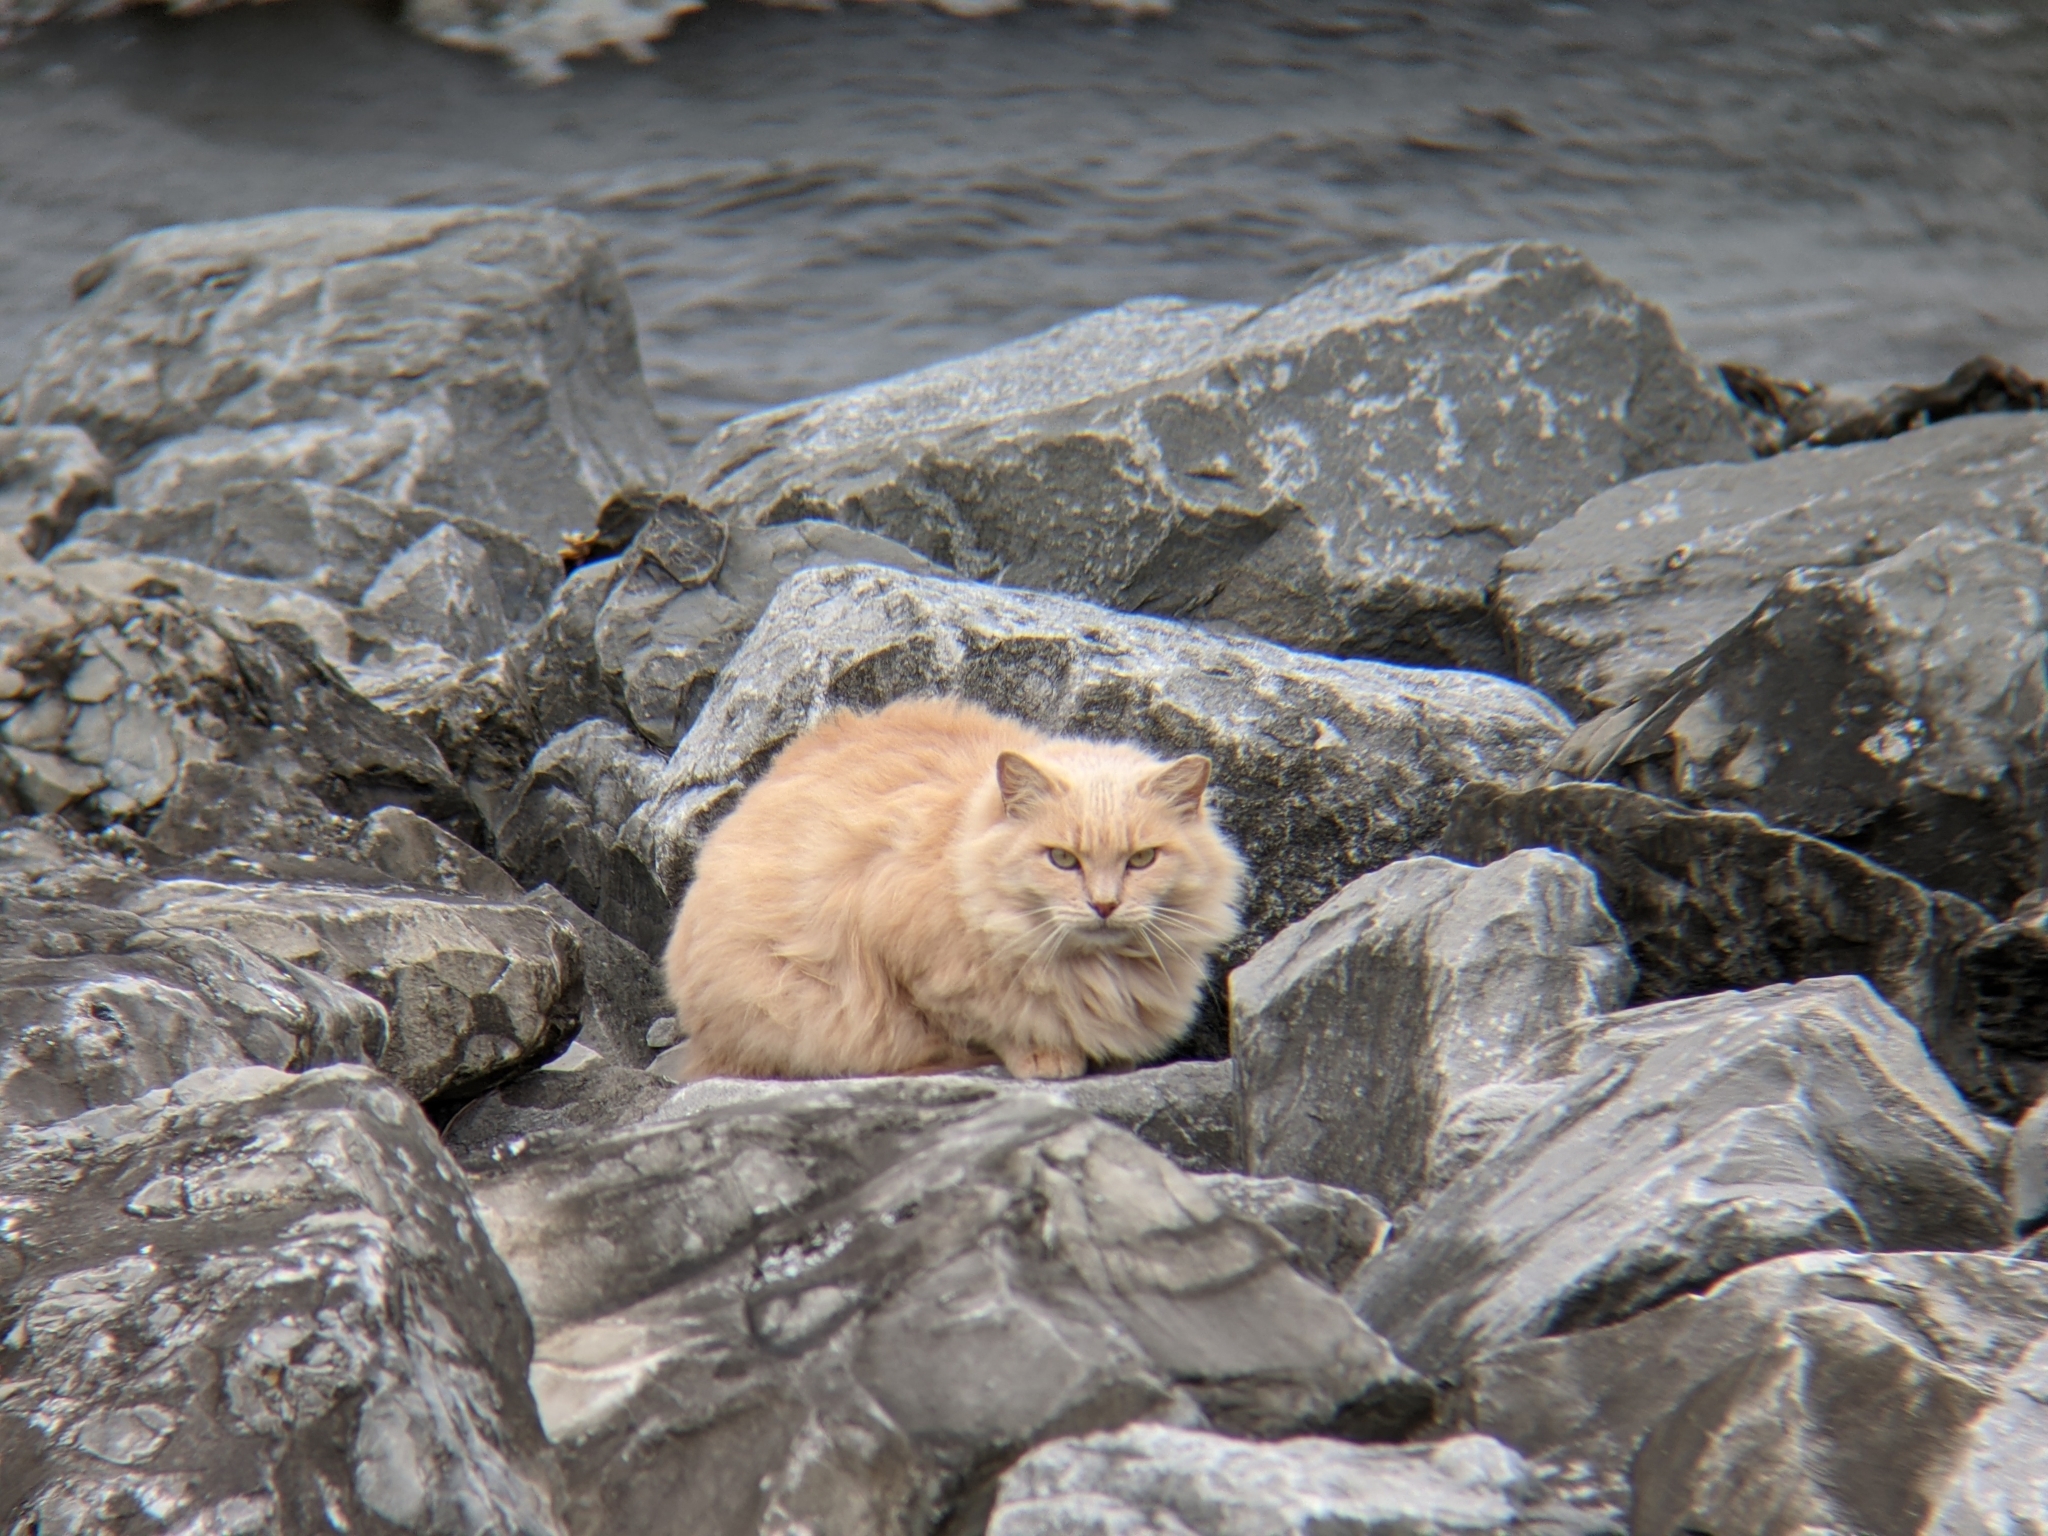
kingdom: Animalia
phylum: Chordata
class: Mammalia
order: Carnivora
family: Felidae
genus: Felis
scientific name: Felis catus
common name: Domestic cat
